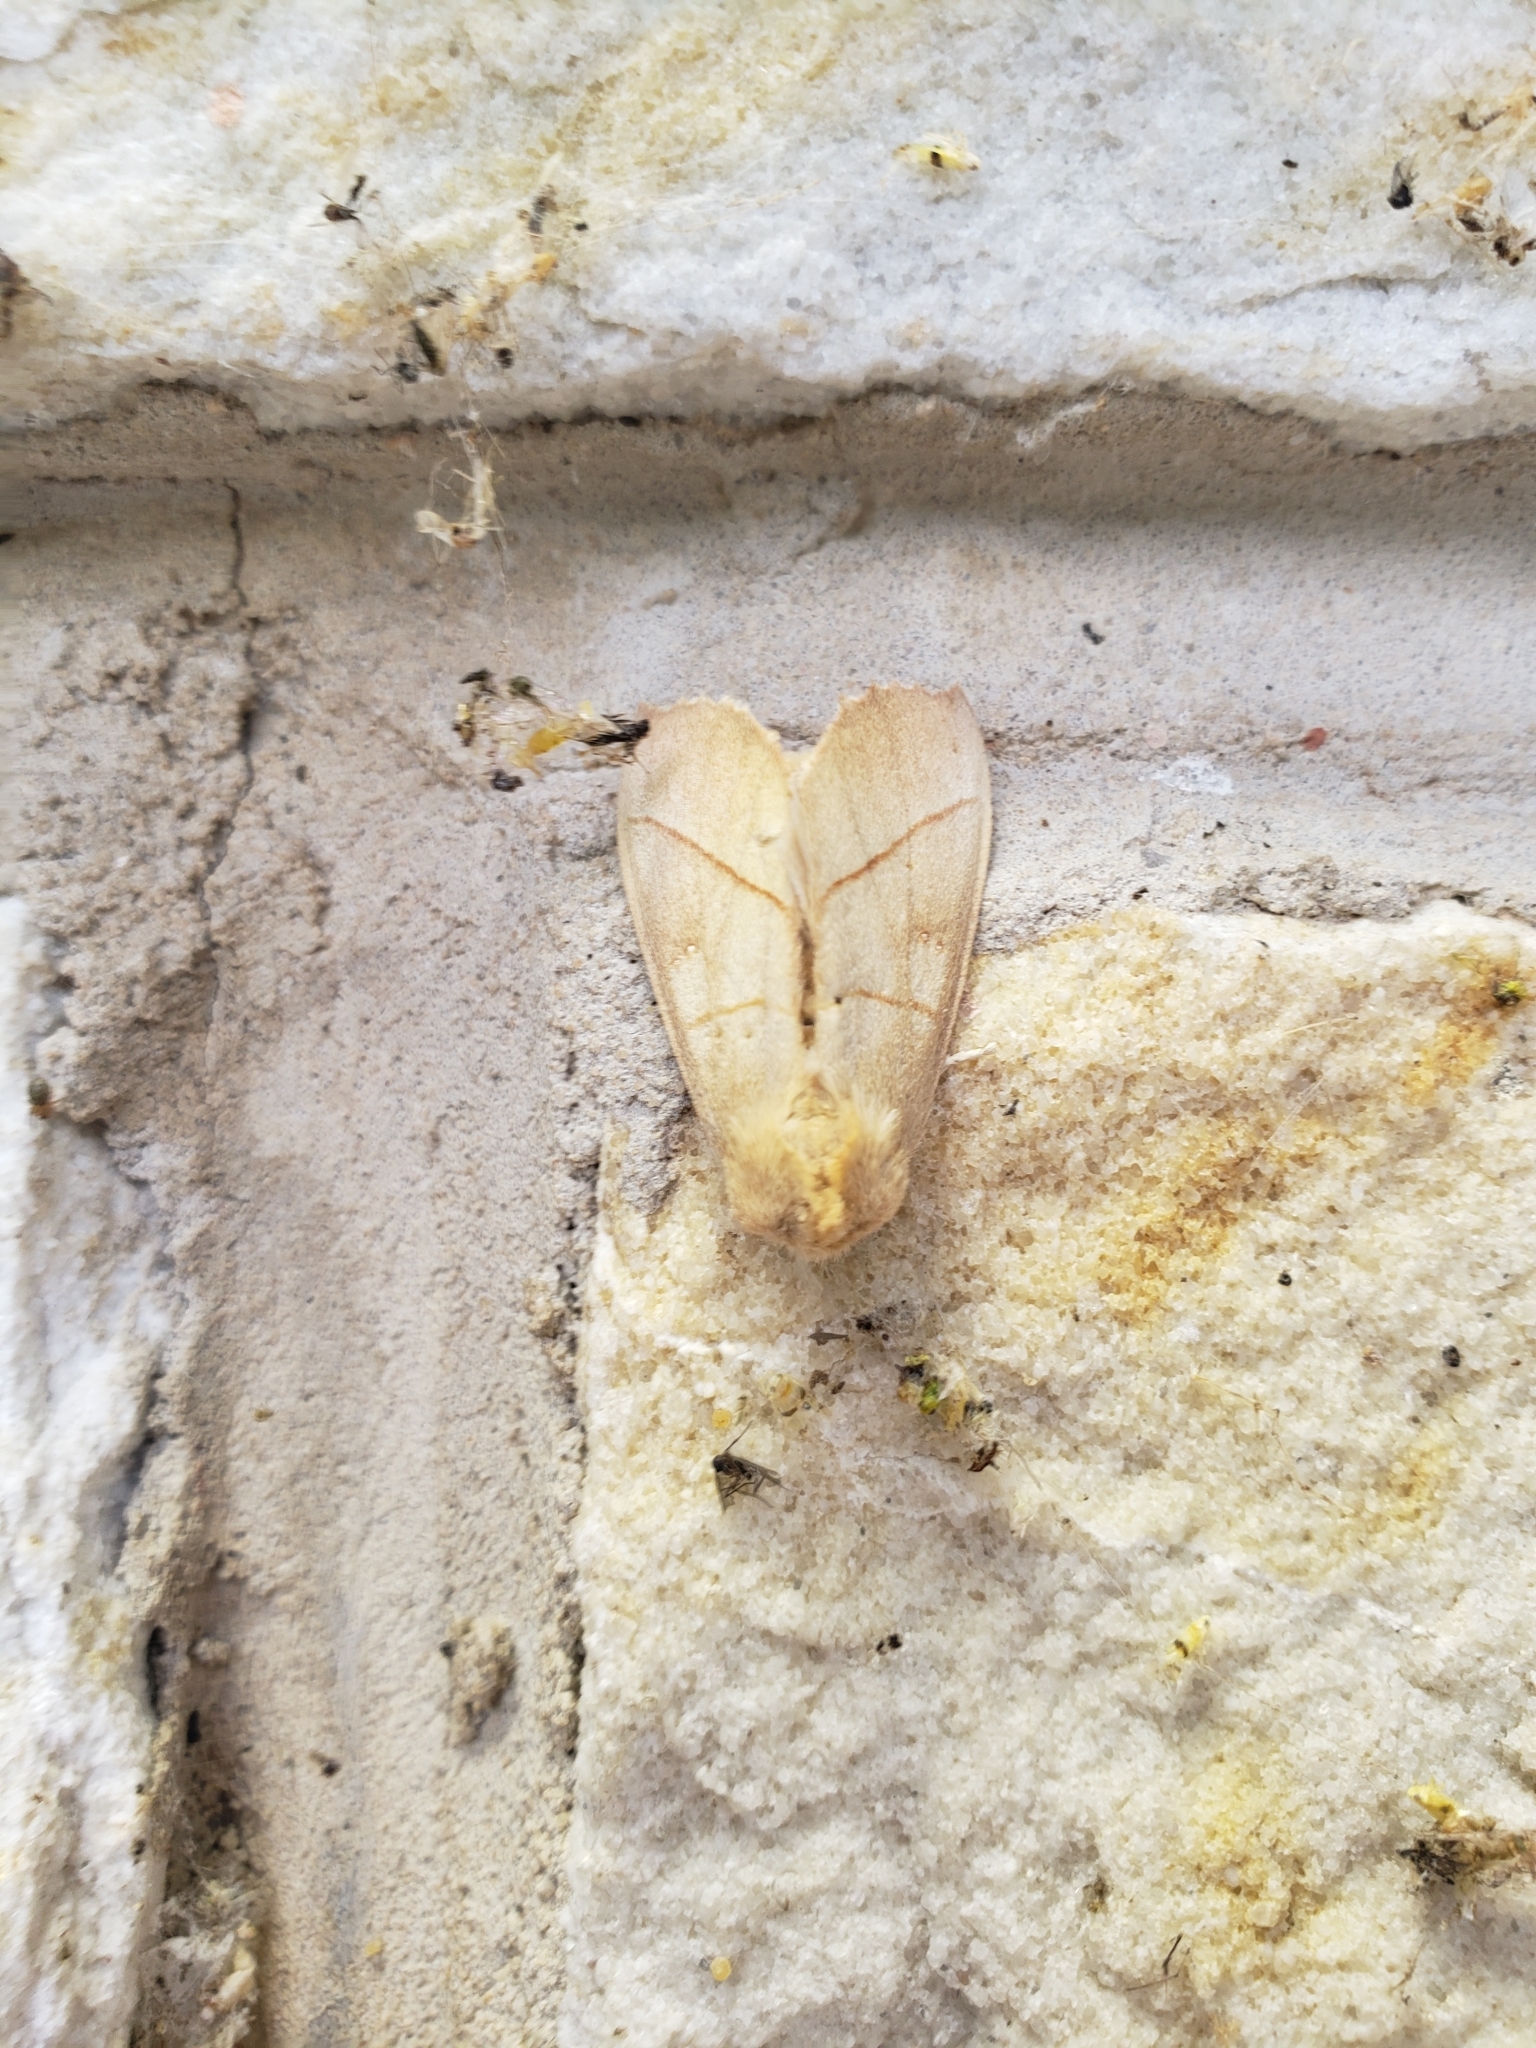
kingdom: Animalia
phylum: Arthropoda
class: Insecta
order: Lepidoptera
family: Notodontidae
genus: Nadata
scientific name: Nadata gibbosa
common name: White-dotted prominent
